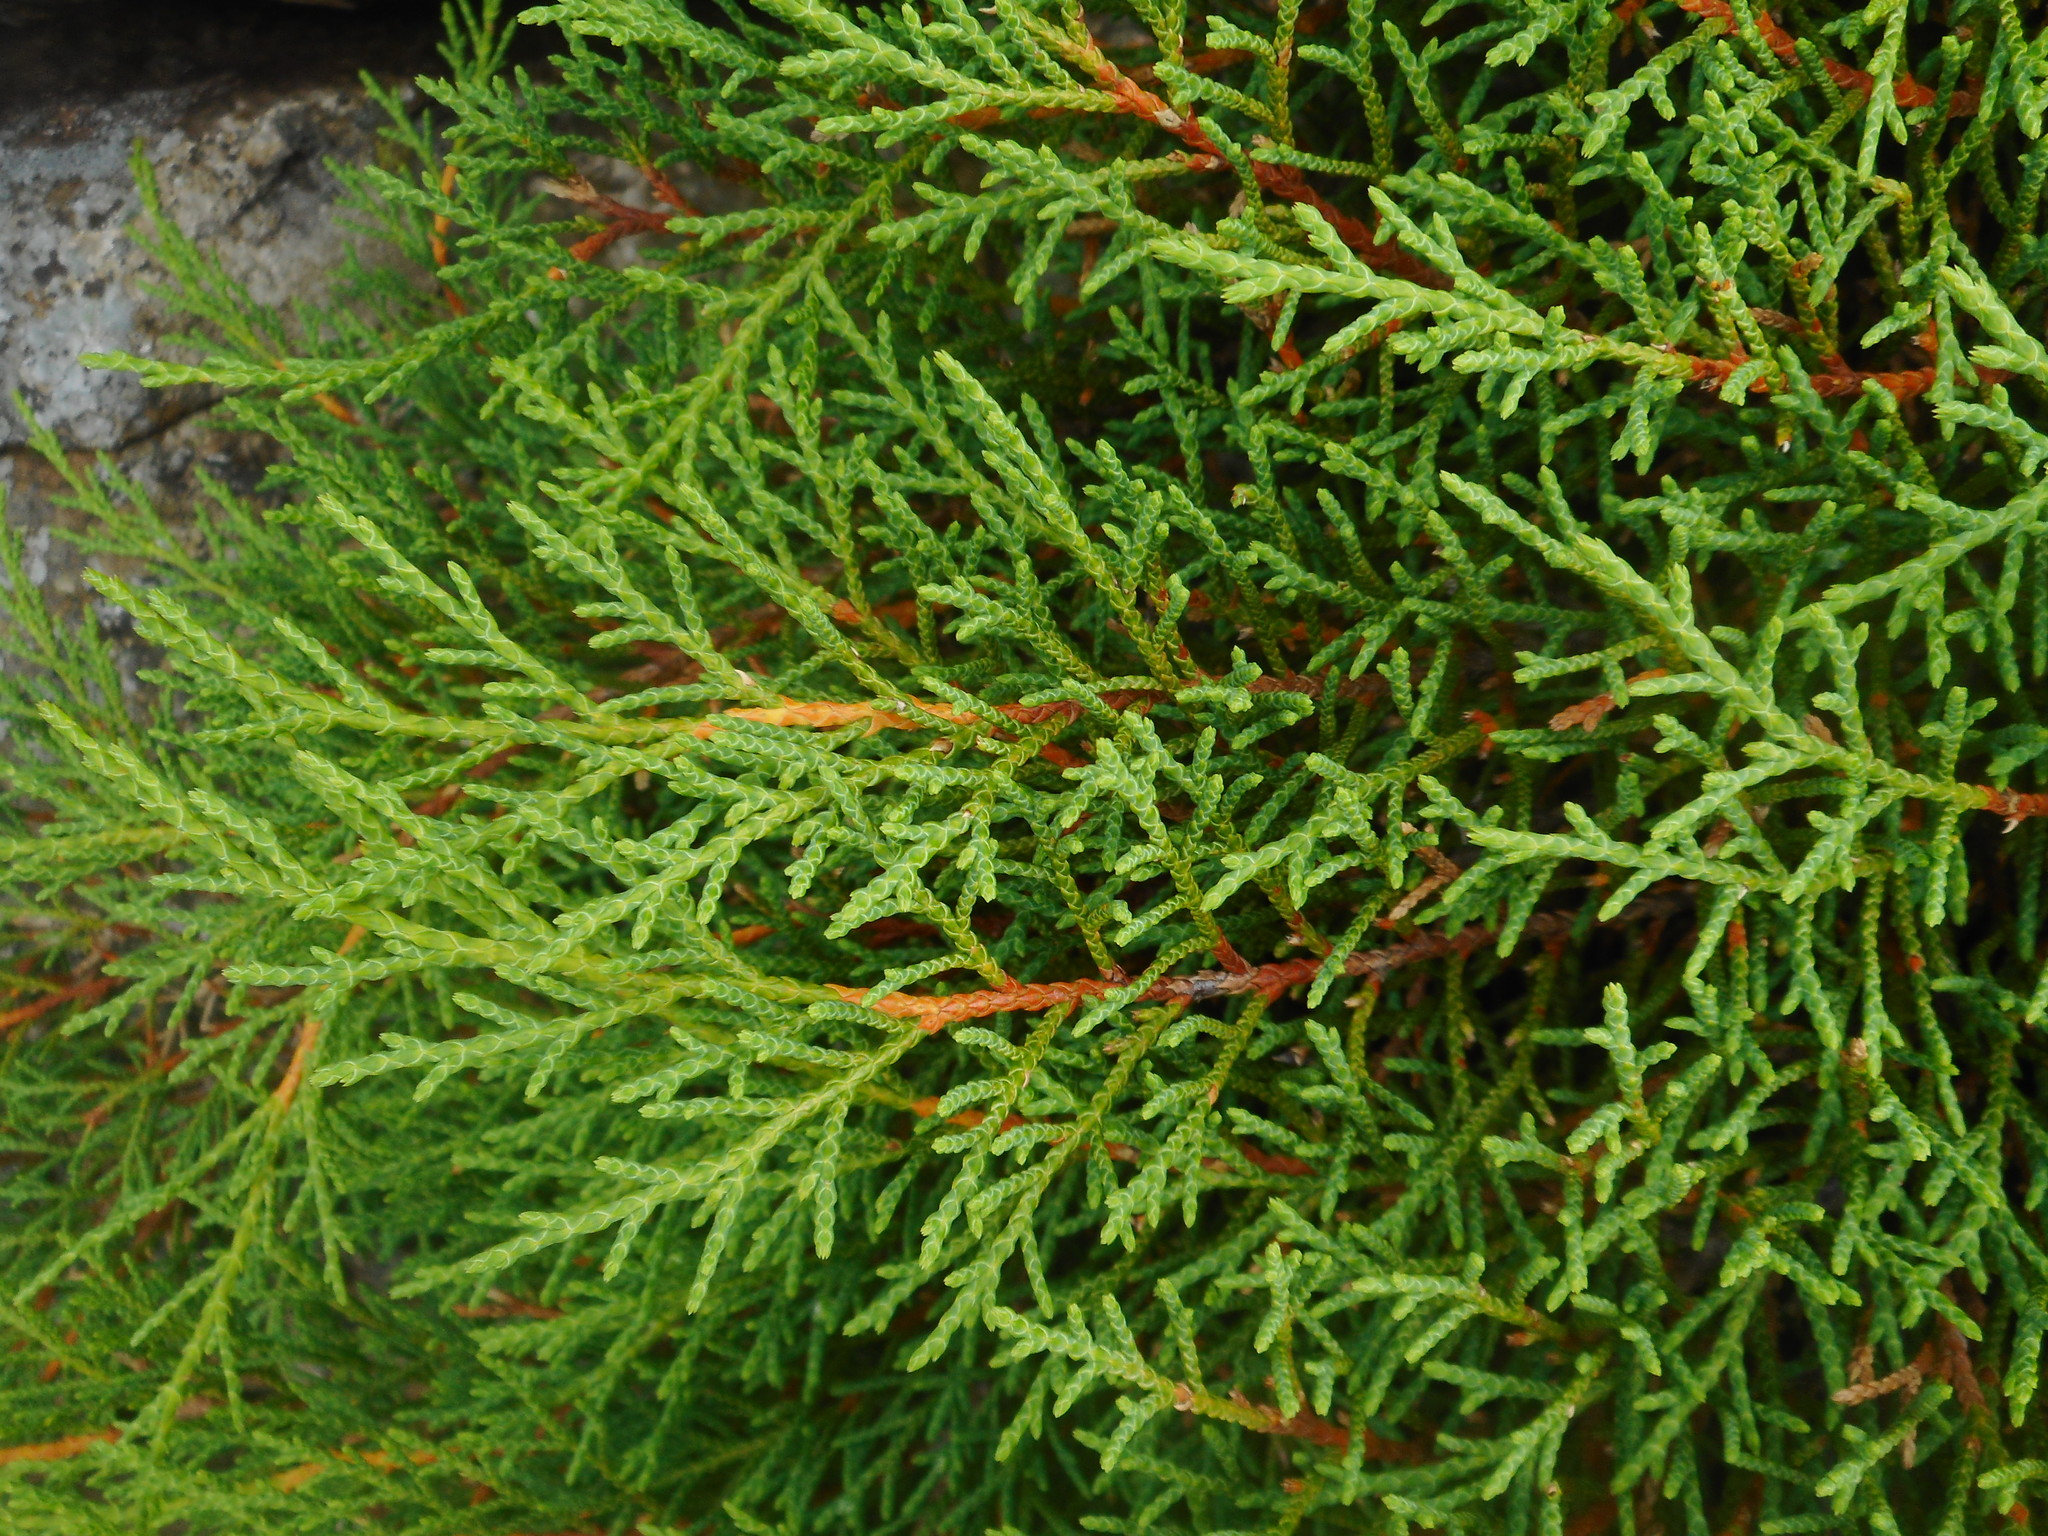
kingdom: Plantae
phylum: Tracheophyta
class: Pinopsida
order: Pinales
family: Cupressaceae
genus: Microbiota
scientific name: Microbiota decussata
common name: Siberian cypress
